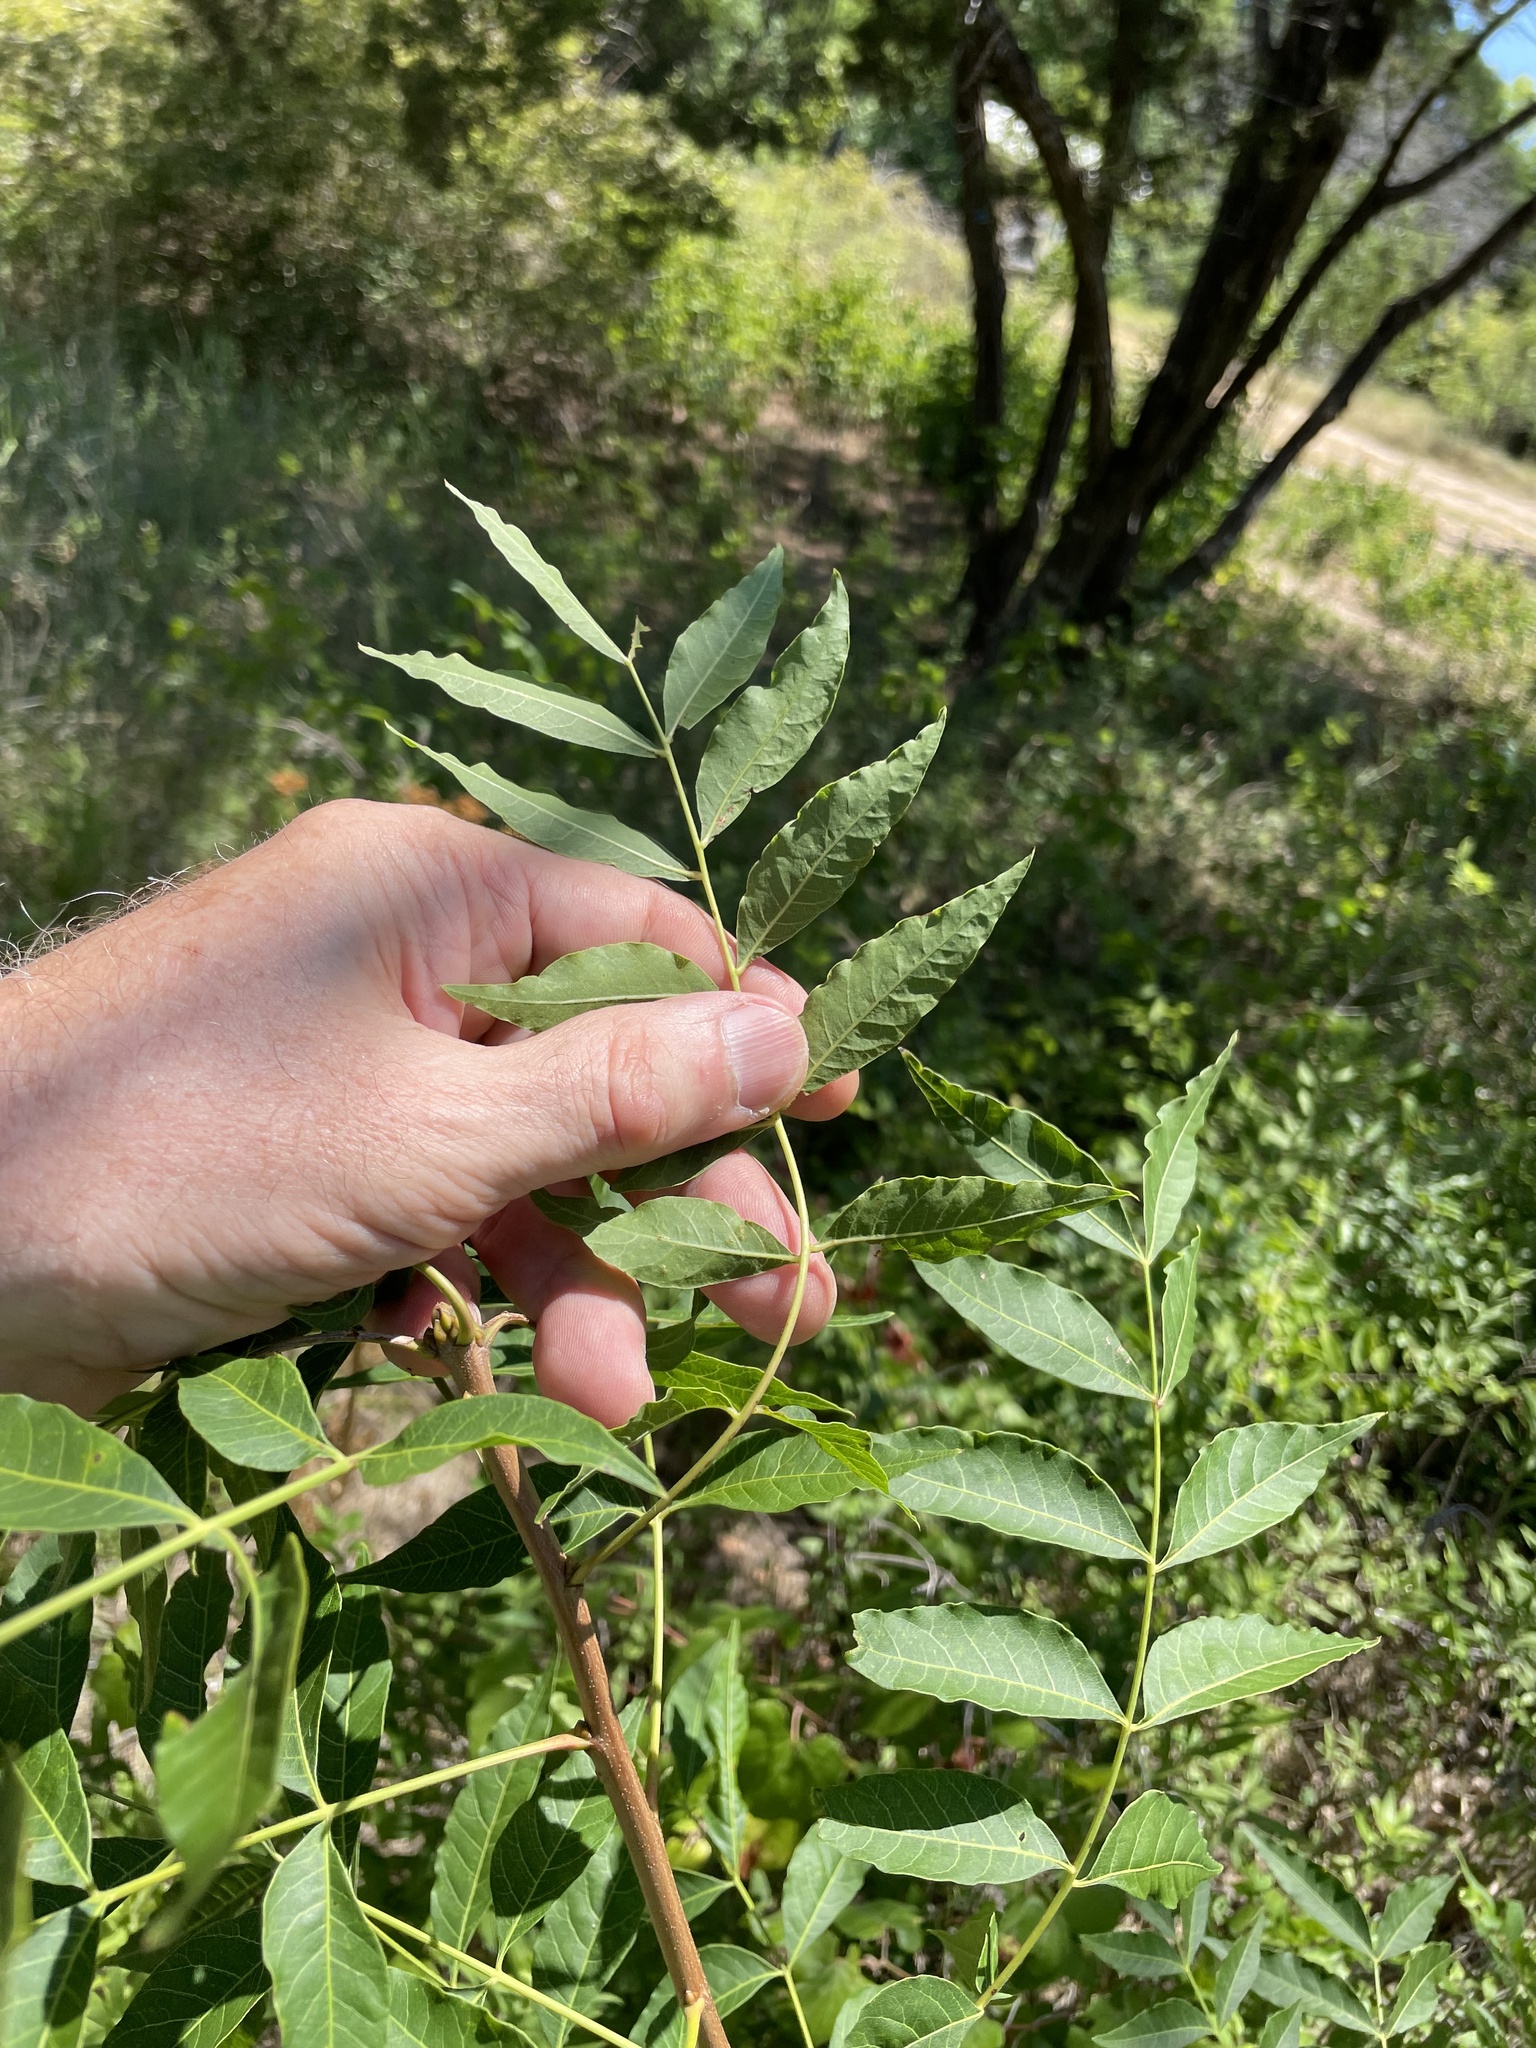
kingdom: Plantae
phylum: Tracheophyta
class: Magnoliopsida
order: Sapindales
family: Anacardiaceae
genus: Pistacia
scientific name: Pistacia chinensis
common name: Chinese pistache
